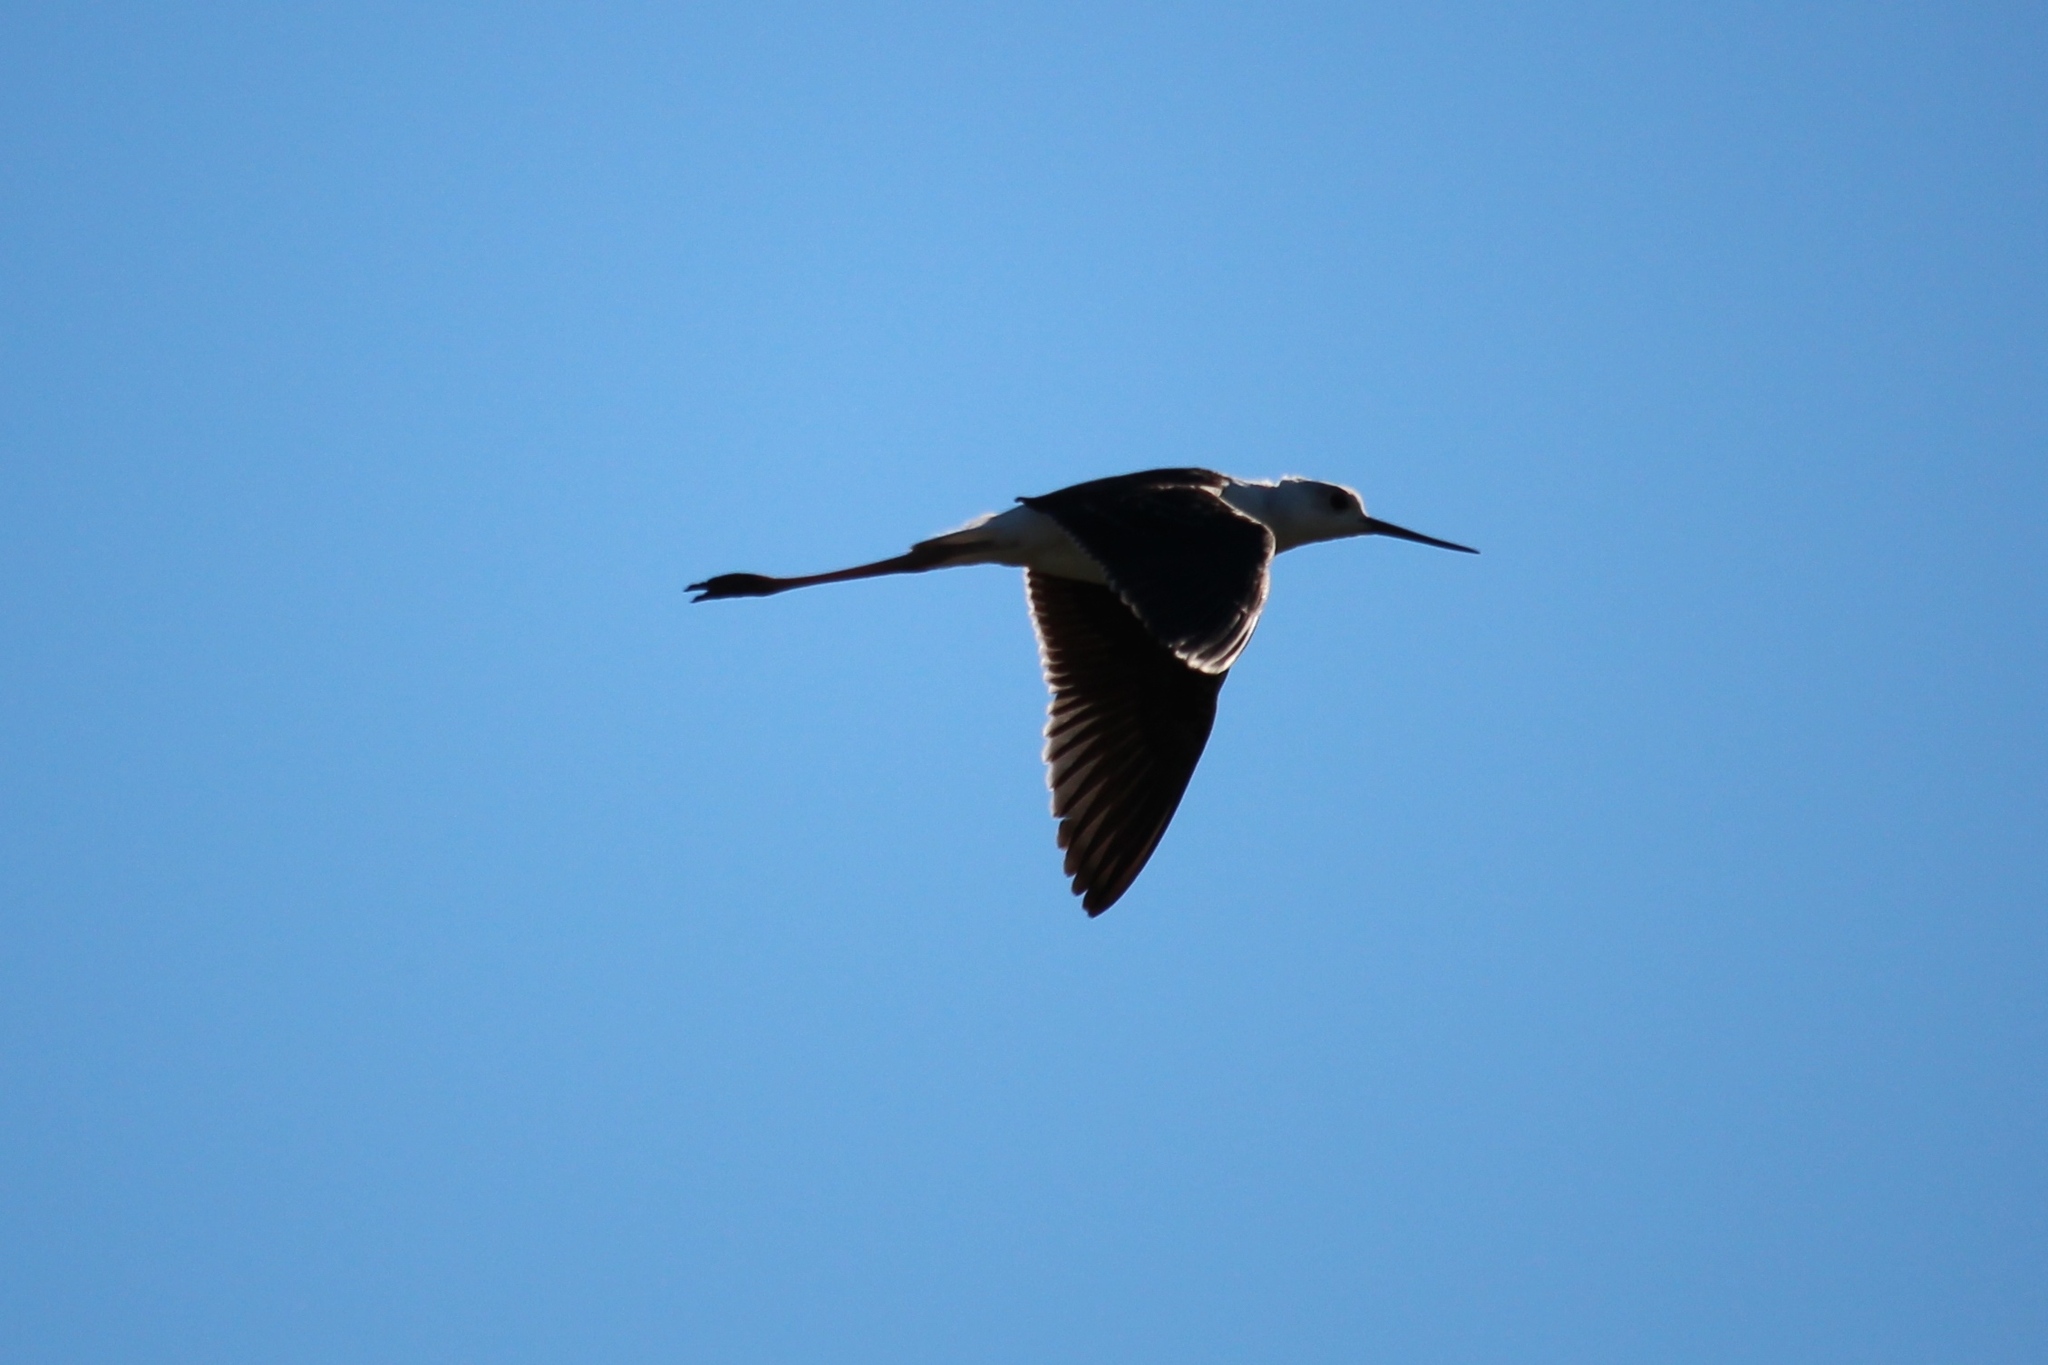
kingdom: Animalia
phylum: Chordata
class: Aves
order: Charadriiformes
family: Recurvirostridae
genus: Himantopus
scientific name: Himantopus leucocephalus
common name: White-headed stilt
